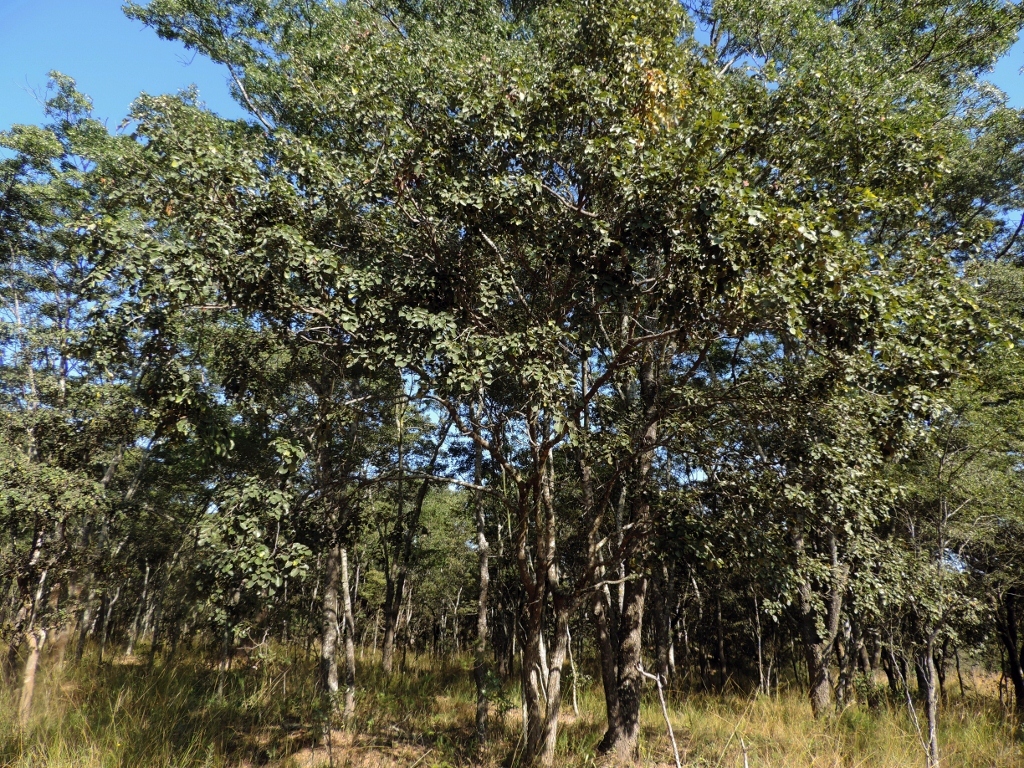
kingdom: Plantae
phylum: Tracheophyta
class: Magnoliopsida
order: Fabales
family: Fabaceae
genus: Pterocarpus
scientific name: Pterocarpus rotundifolius
